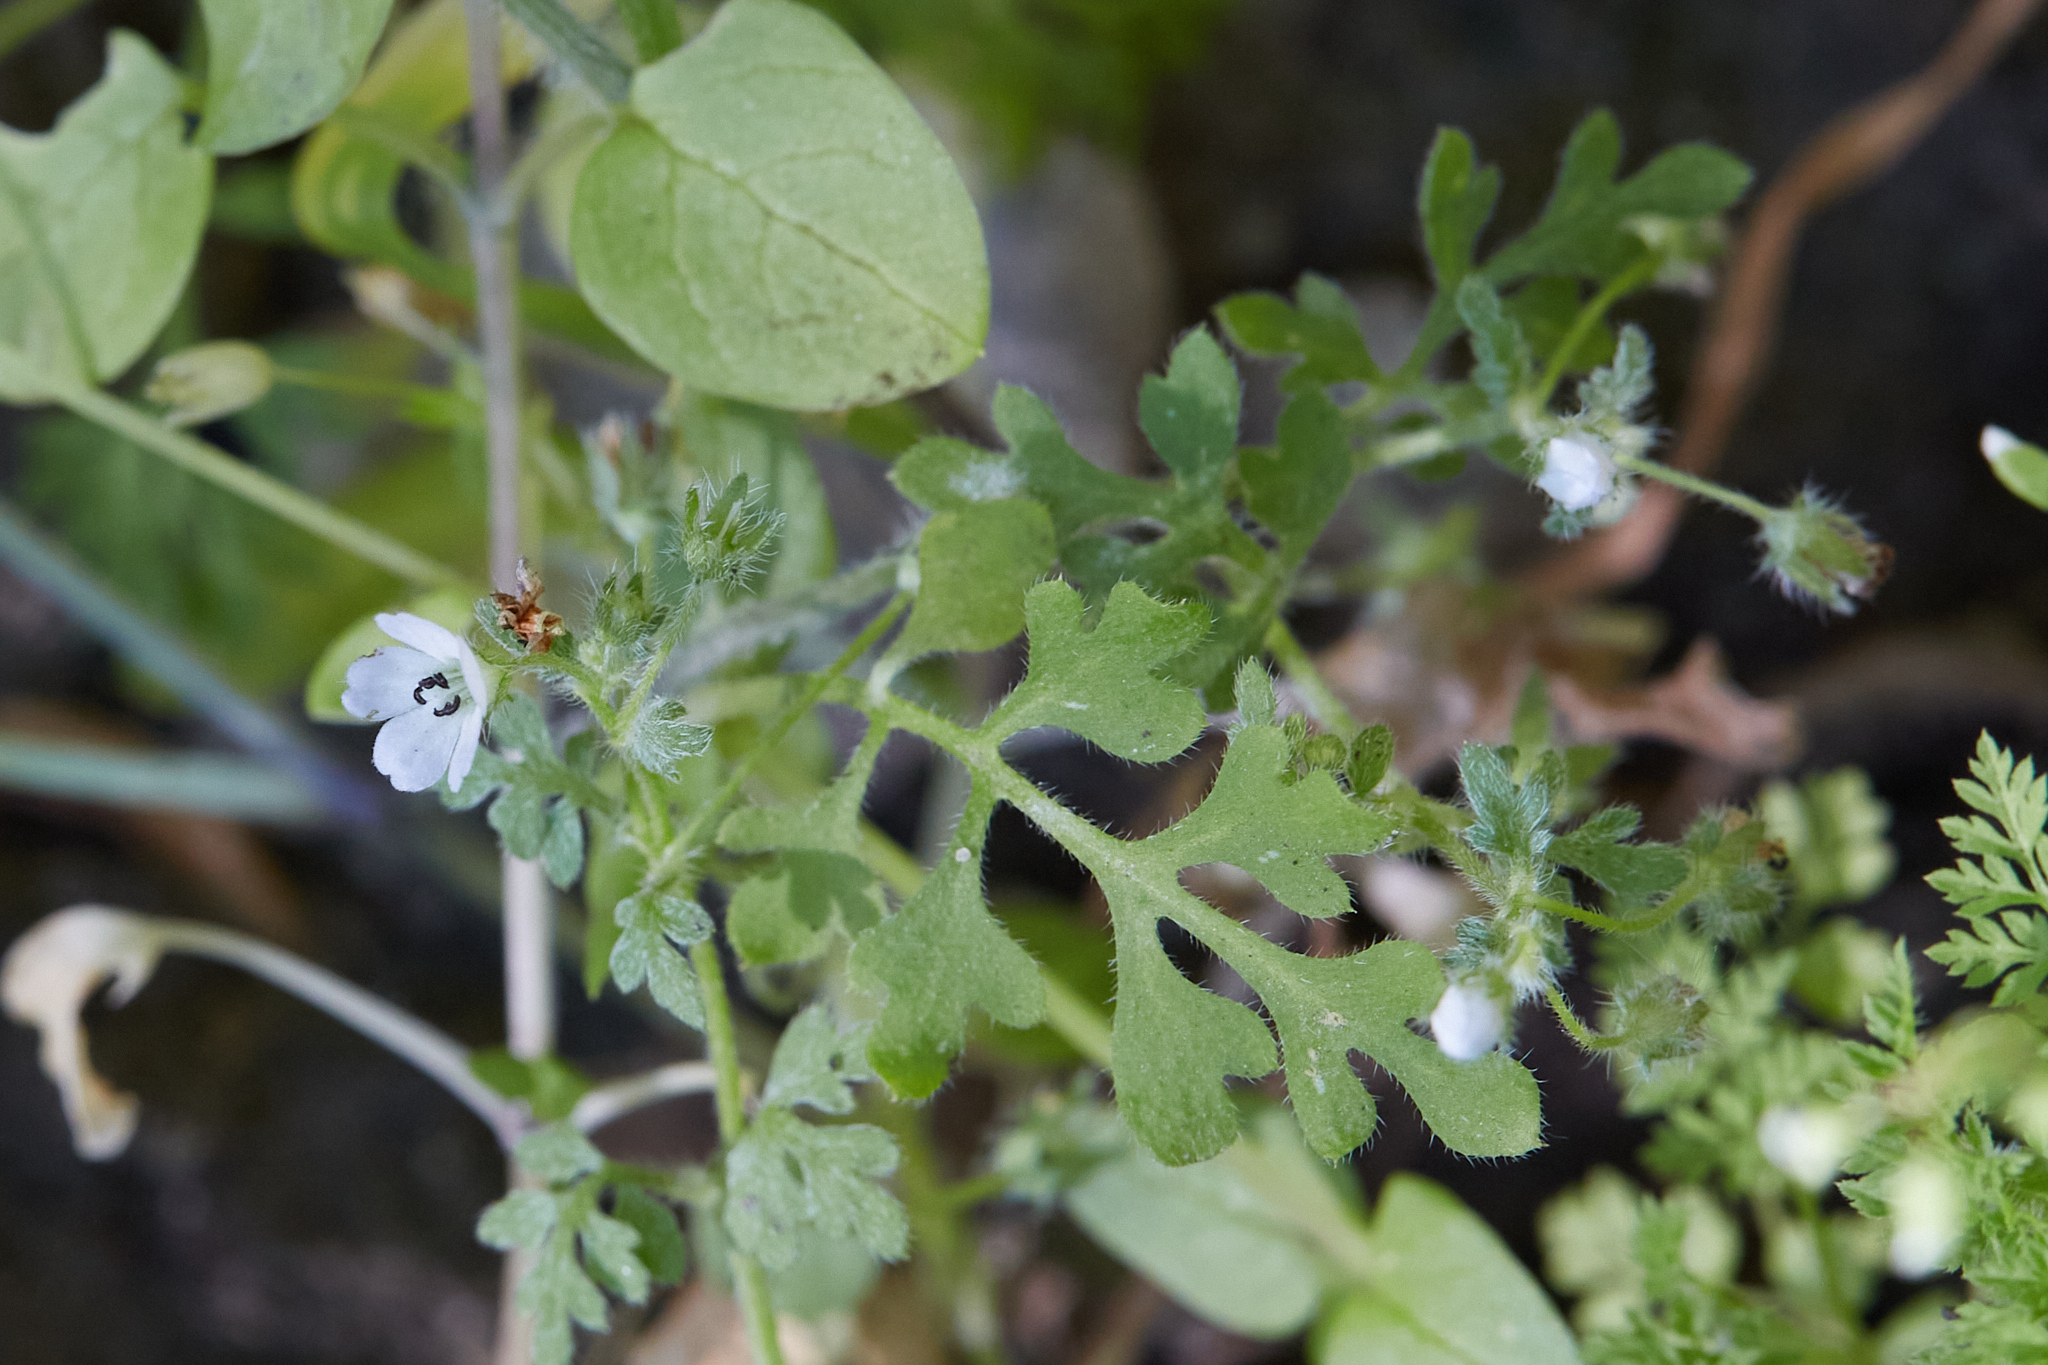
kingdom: Plantae
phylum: Tracheophyta
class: Magnoliopsida
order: Boraginales
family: Hydrophyllaceae
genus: Nemophila
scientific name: Nemophila heterophylla
